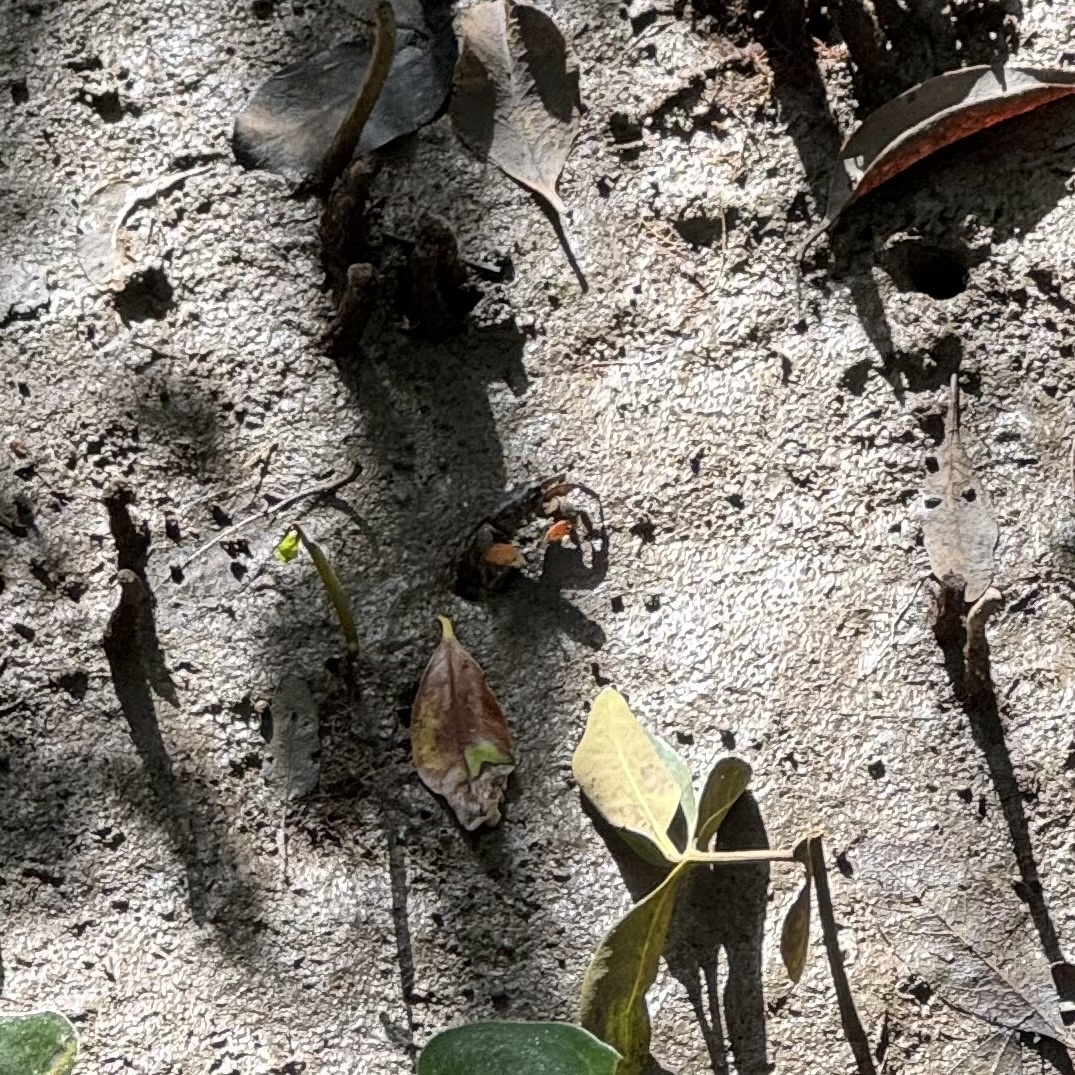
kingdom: Animalia
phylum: Arthropoda
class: Malacostraca
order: Decapoda
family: Heloeciidae
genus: Heloecius
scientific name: Heloecius cordiformis
